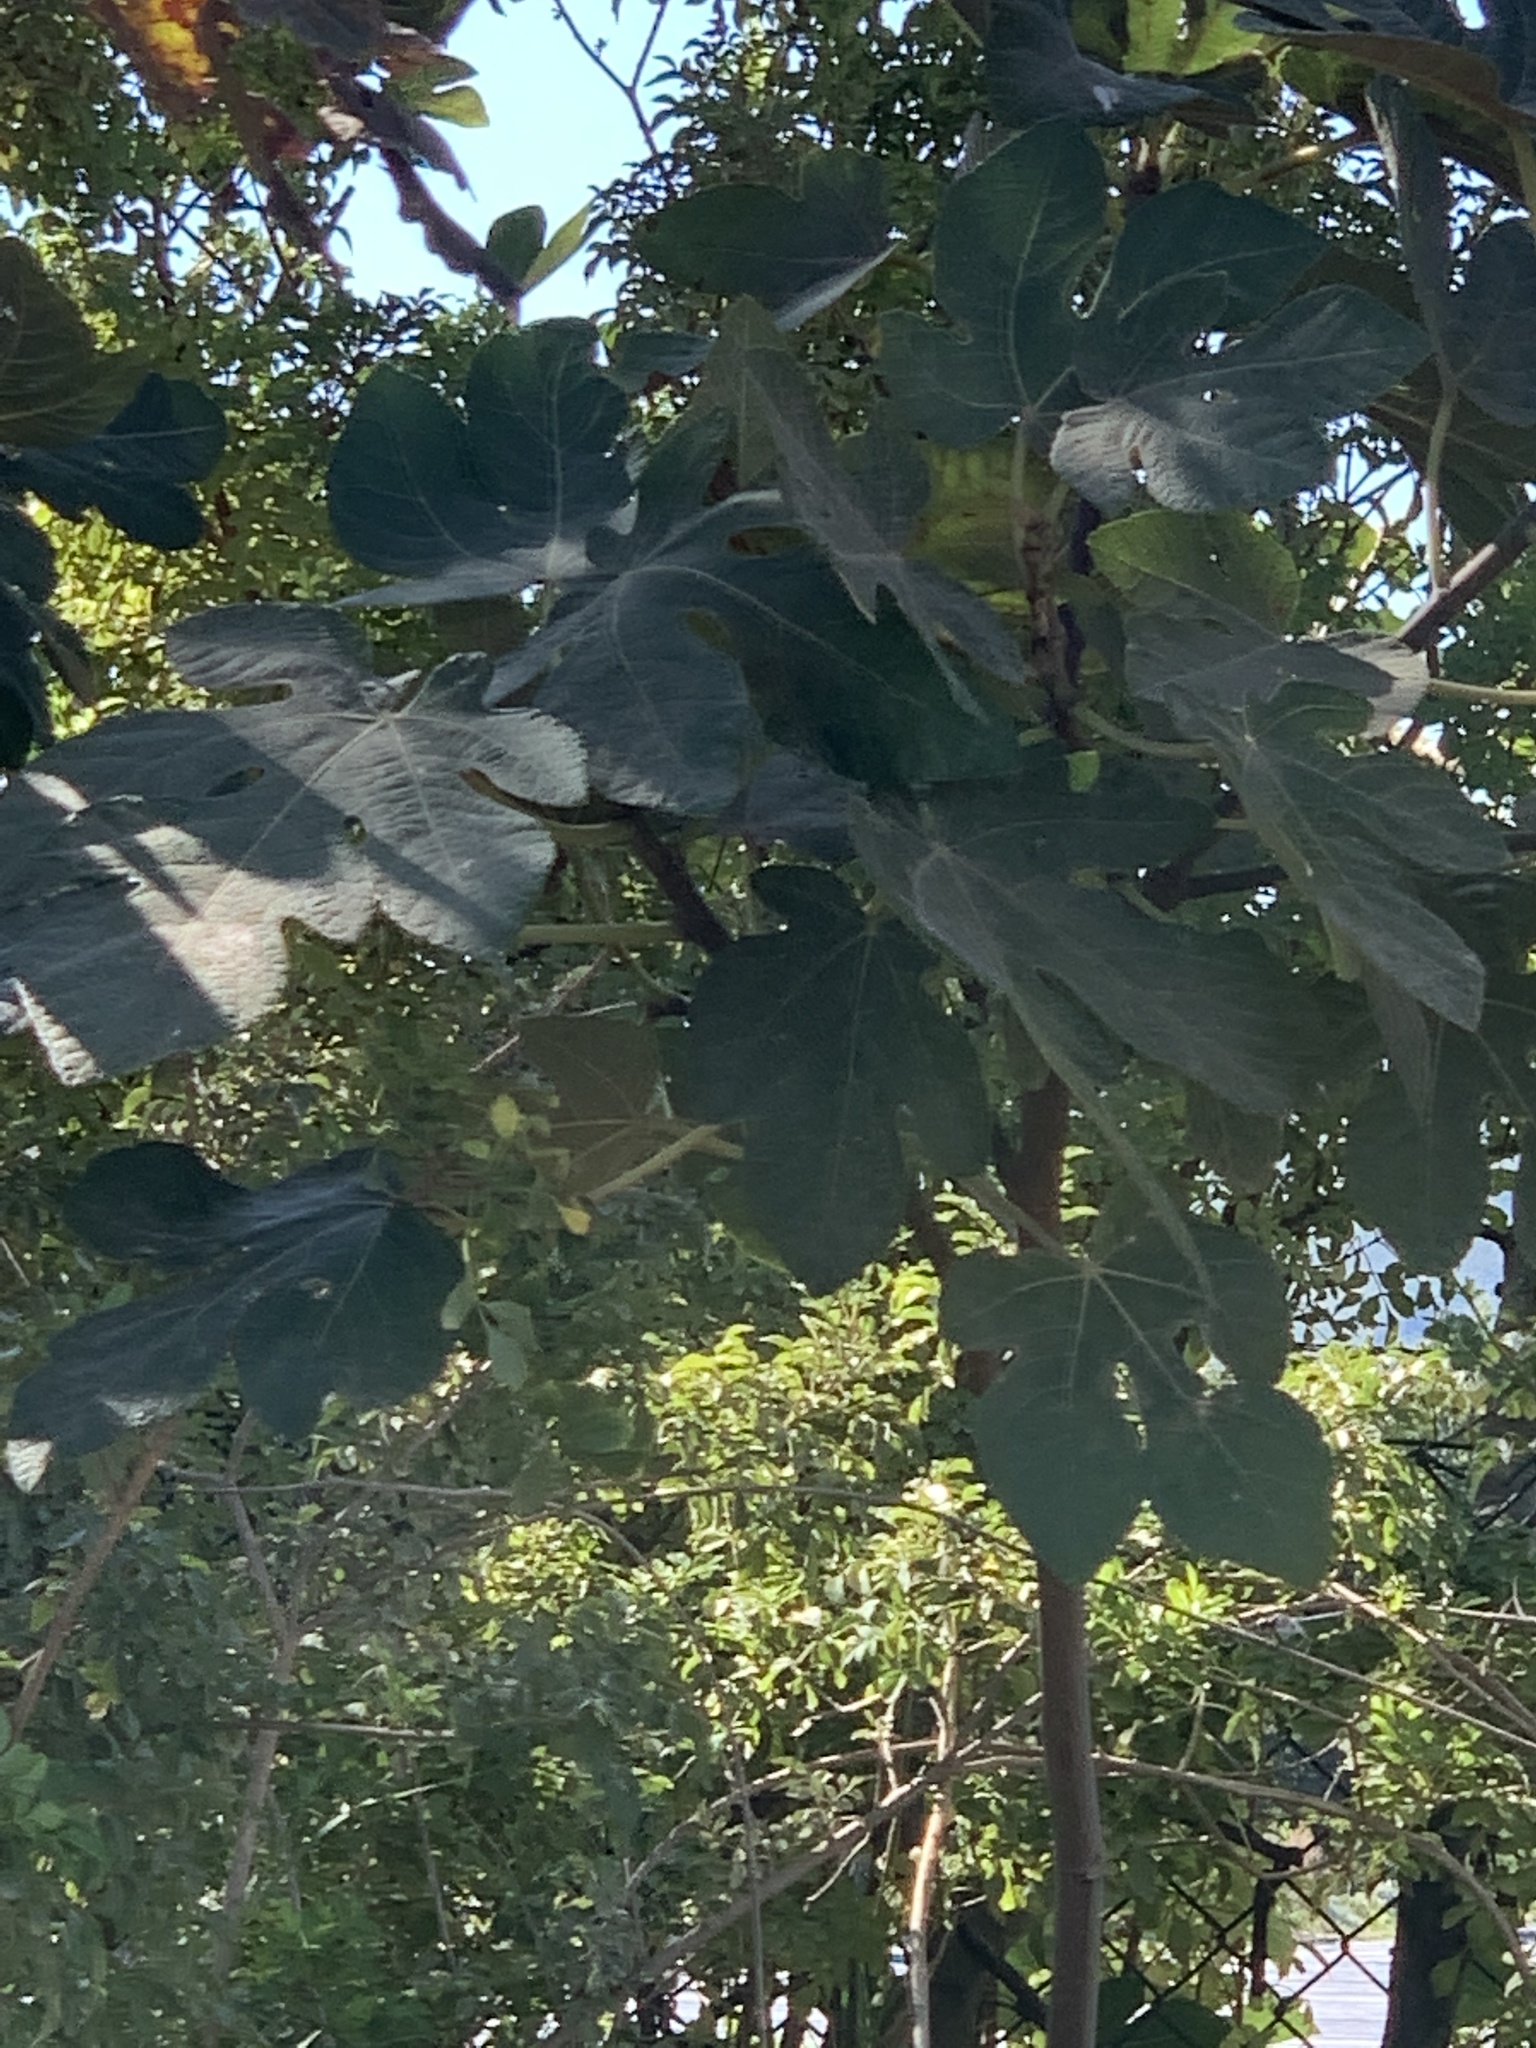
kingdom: Plantae
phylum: Tracheophyta
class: Magnoliopsida
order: Rosales
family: Moraceae
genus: Ficus
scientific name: Ficus carica
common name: Fig
